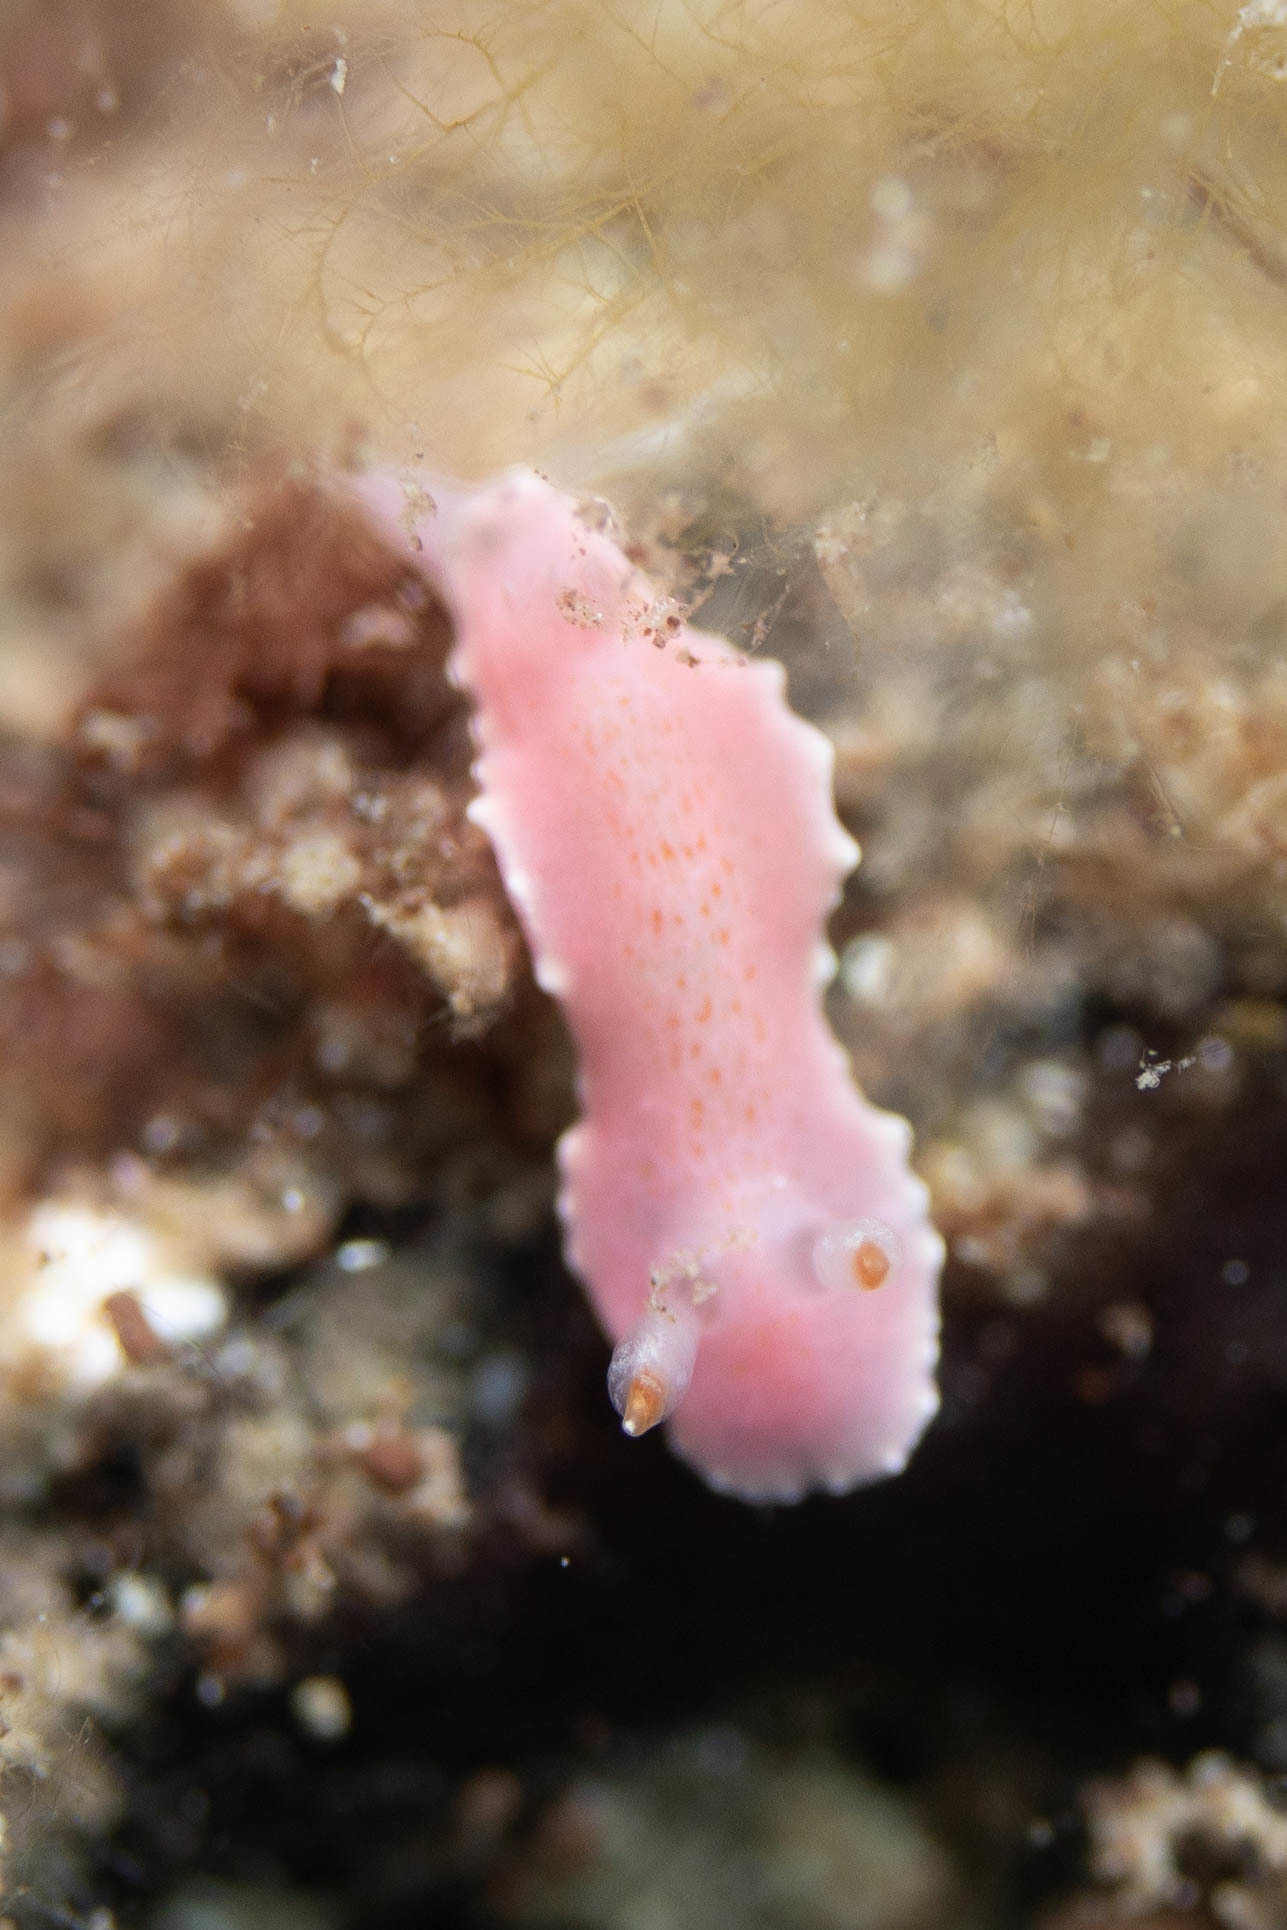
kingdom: Animalia
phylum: Mollusca
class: Gastropoda
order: Nudibranchia
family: Chromodorididae
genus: Verconia
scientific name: Verconia verconis
